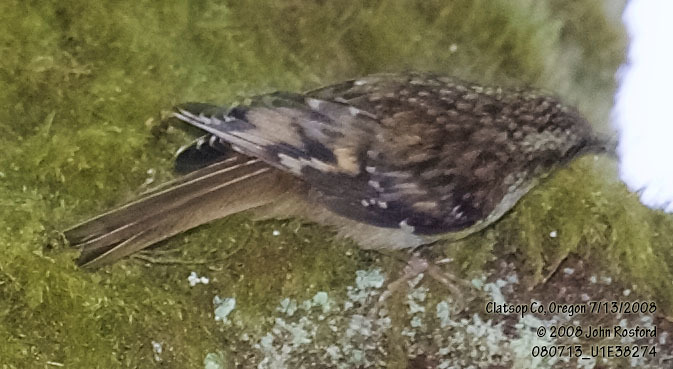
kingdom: Animalia
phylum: Chordata
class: Aves
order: Passeriformes
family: Certhiidae
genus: Certhia
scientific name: Certhia americana
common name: Brown creeper
